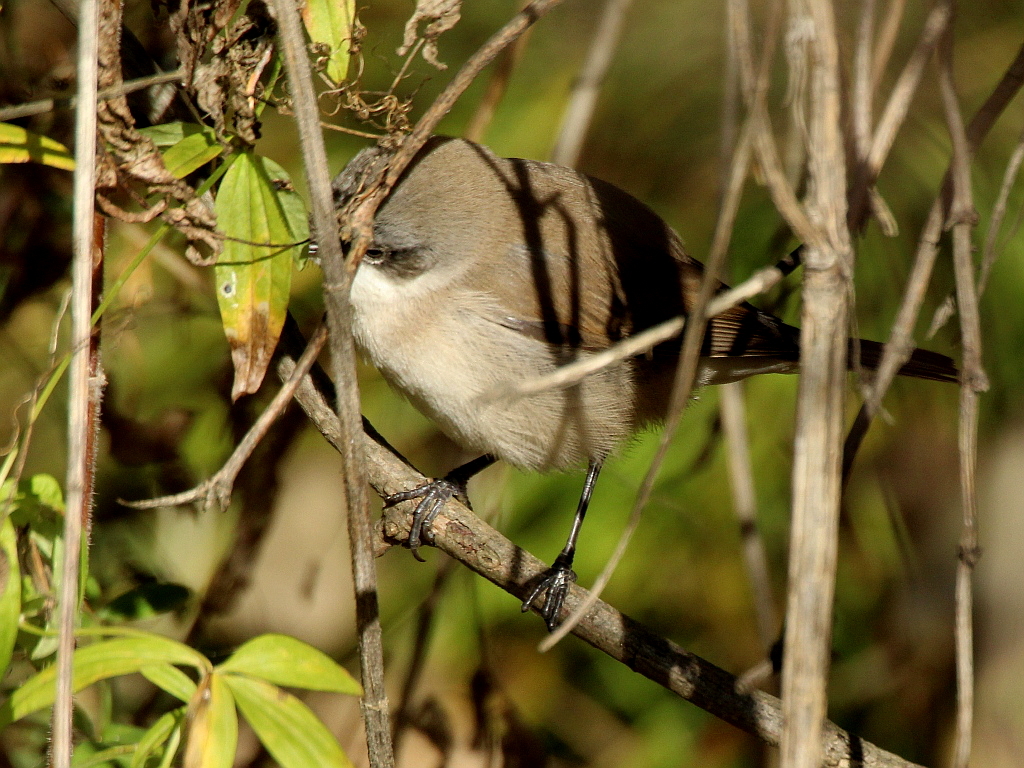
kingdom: Animalia
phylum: Chordata
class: Aves
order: Passeriformes
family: Sylviidae
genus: Sylvia
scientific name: Sylvia curruca
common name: Lesser whitethroat
